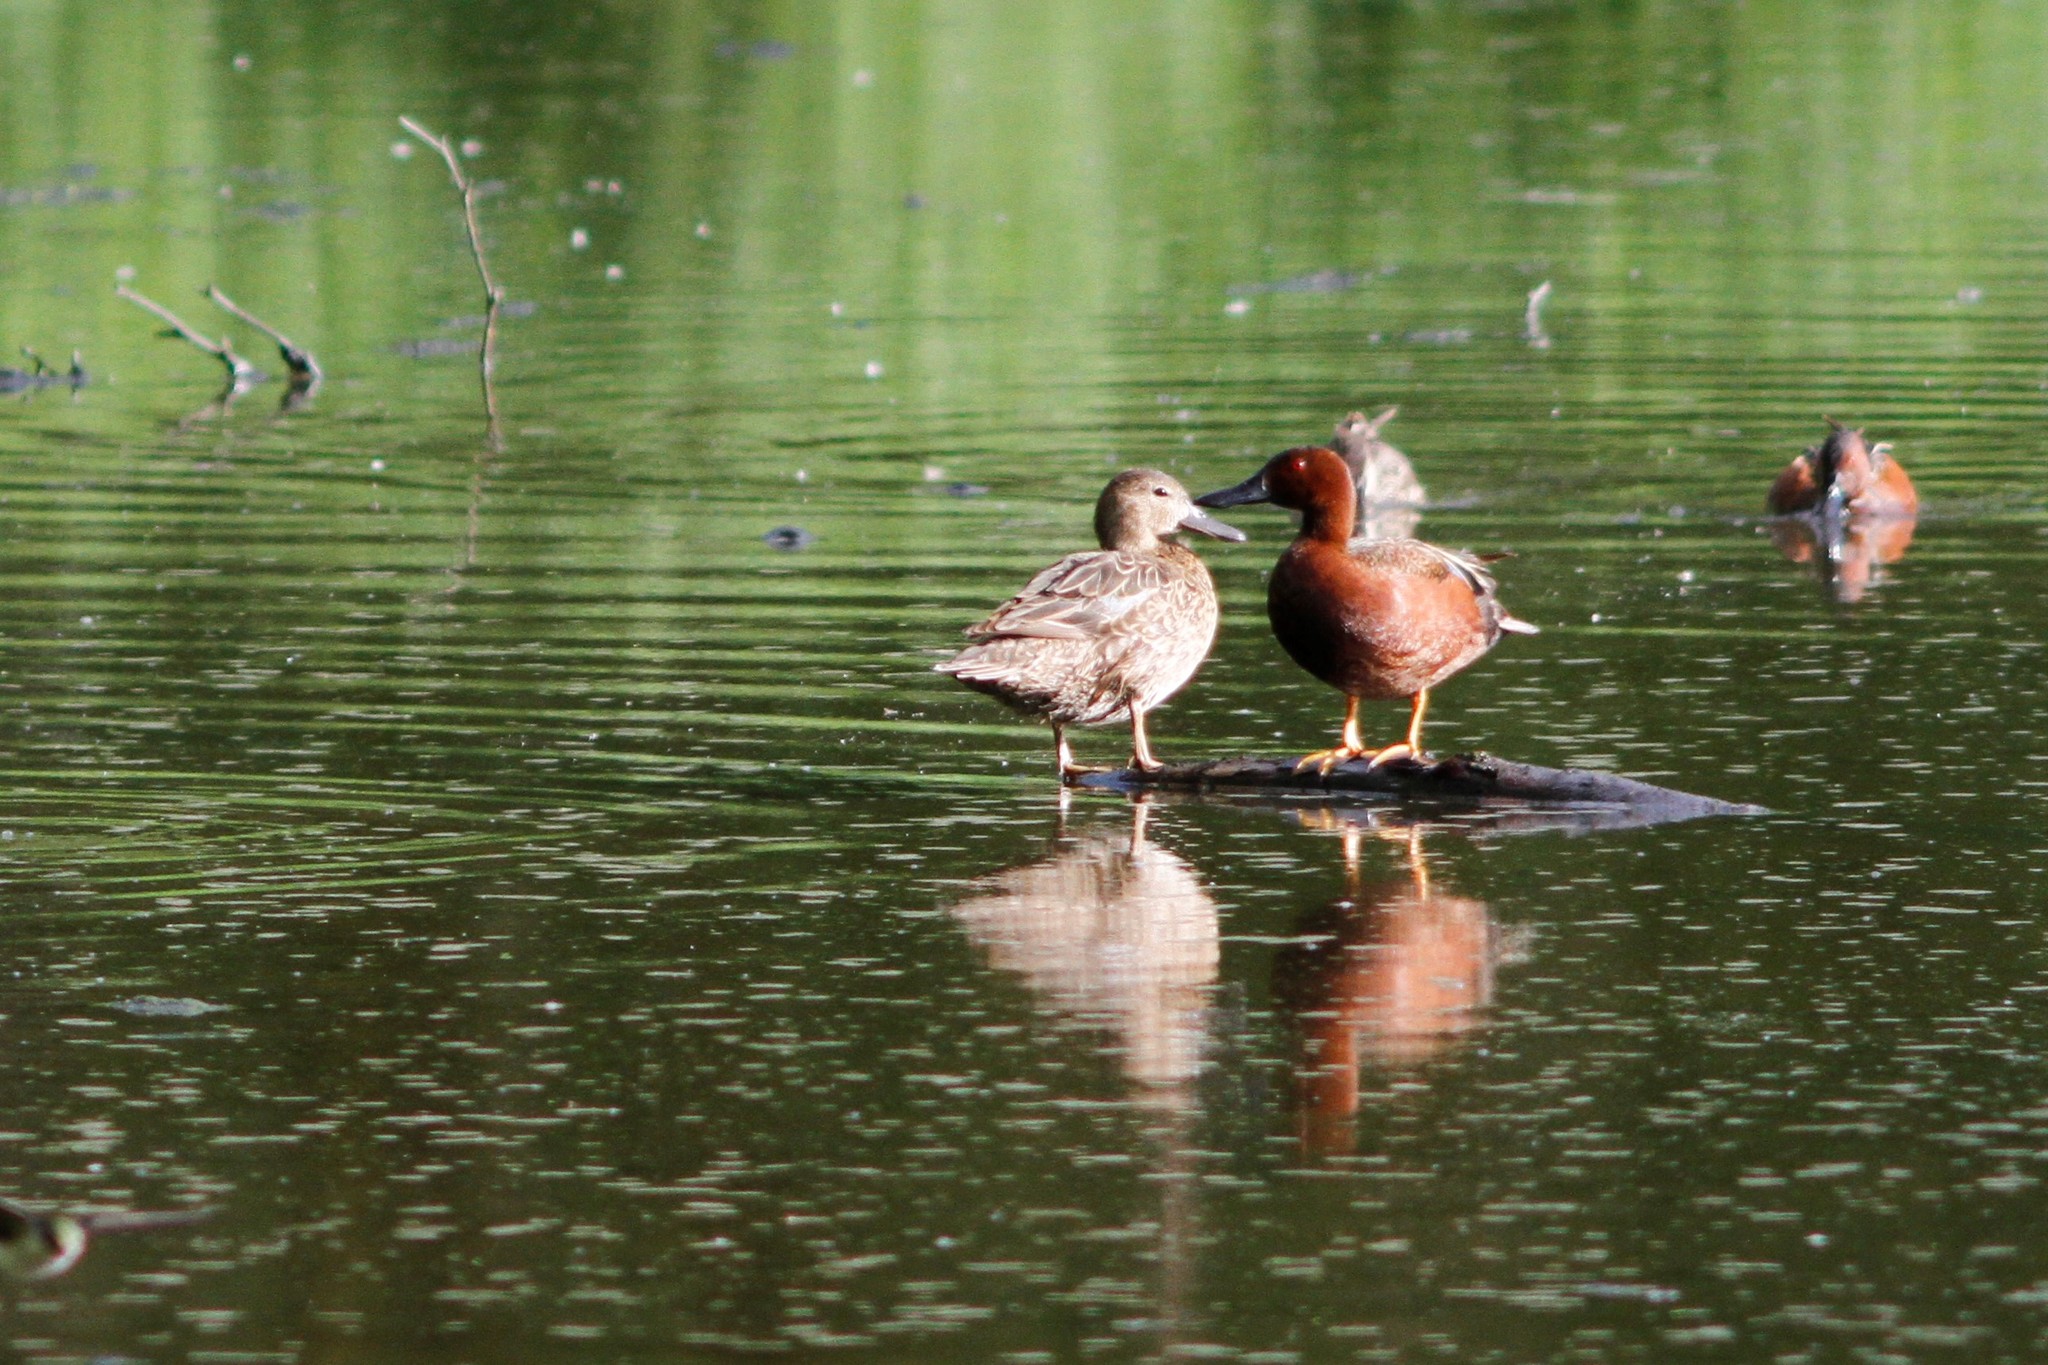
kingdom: Animalia
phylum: Chordata
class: Aves
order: Anseriformes
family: Anatidae
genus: Spatula
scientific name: Spatula cyanoptera
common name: Cinnamon teal
